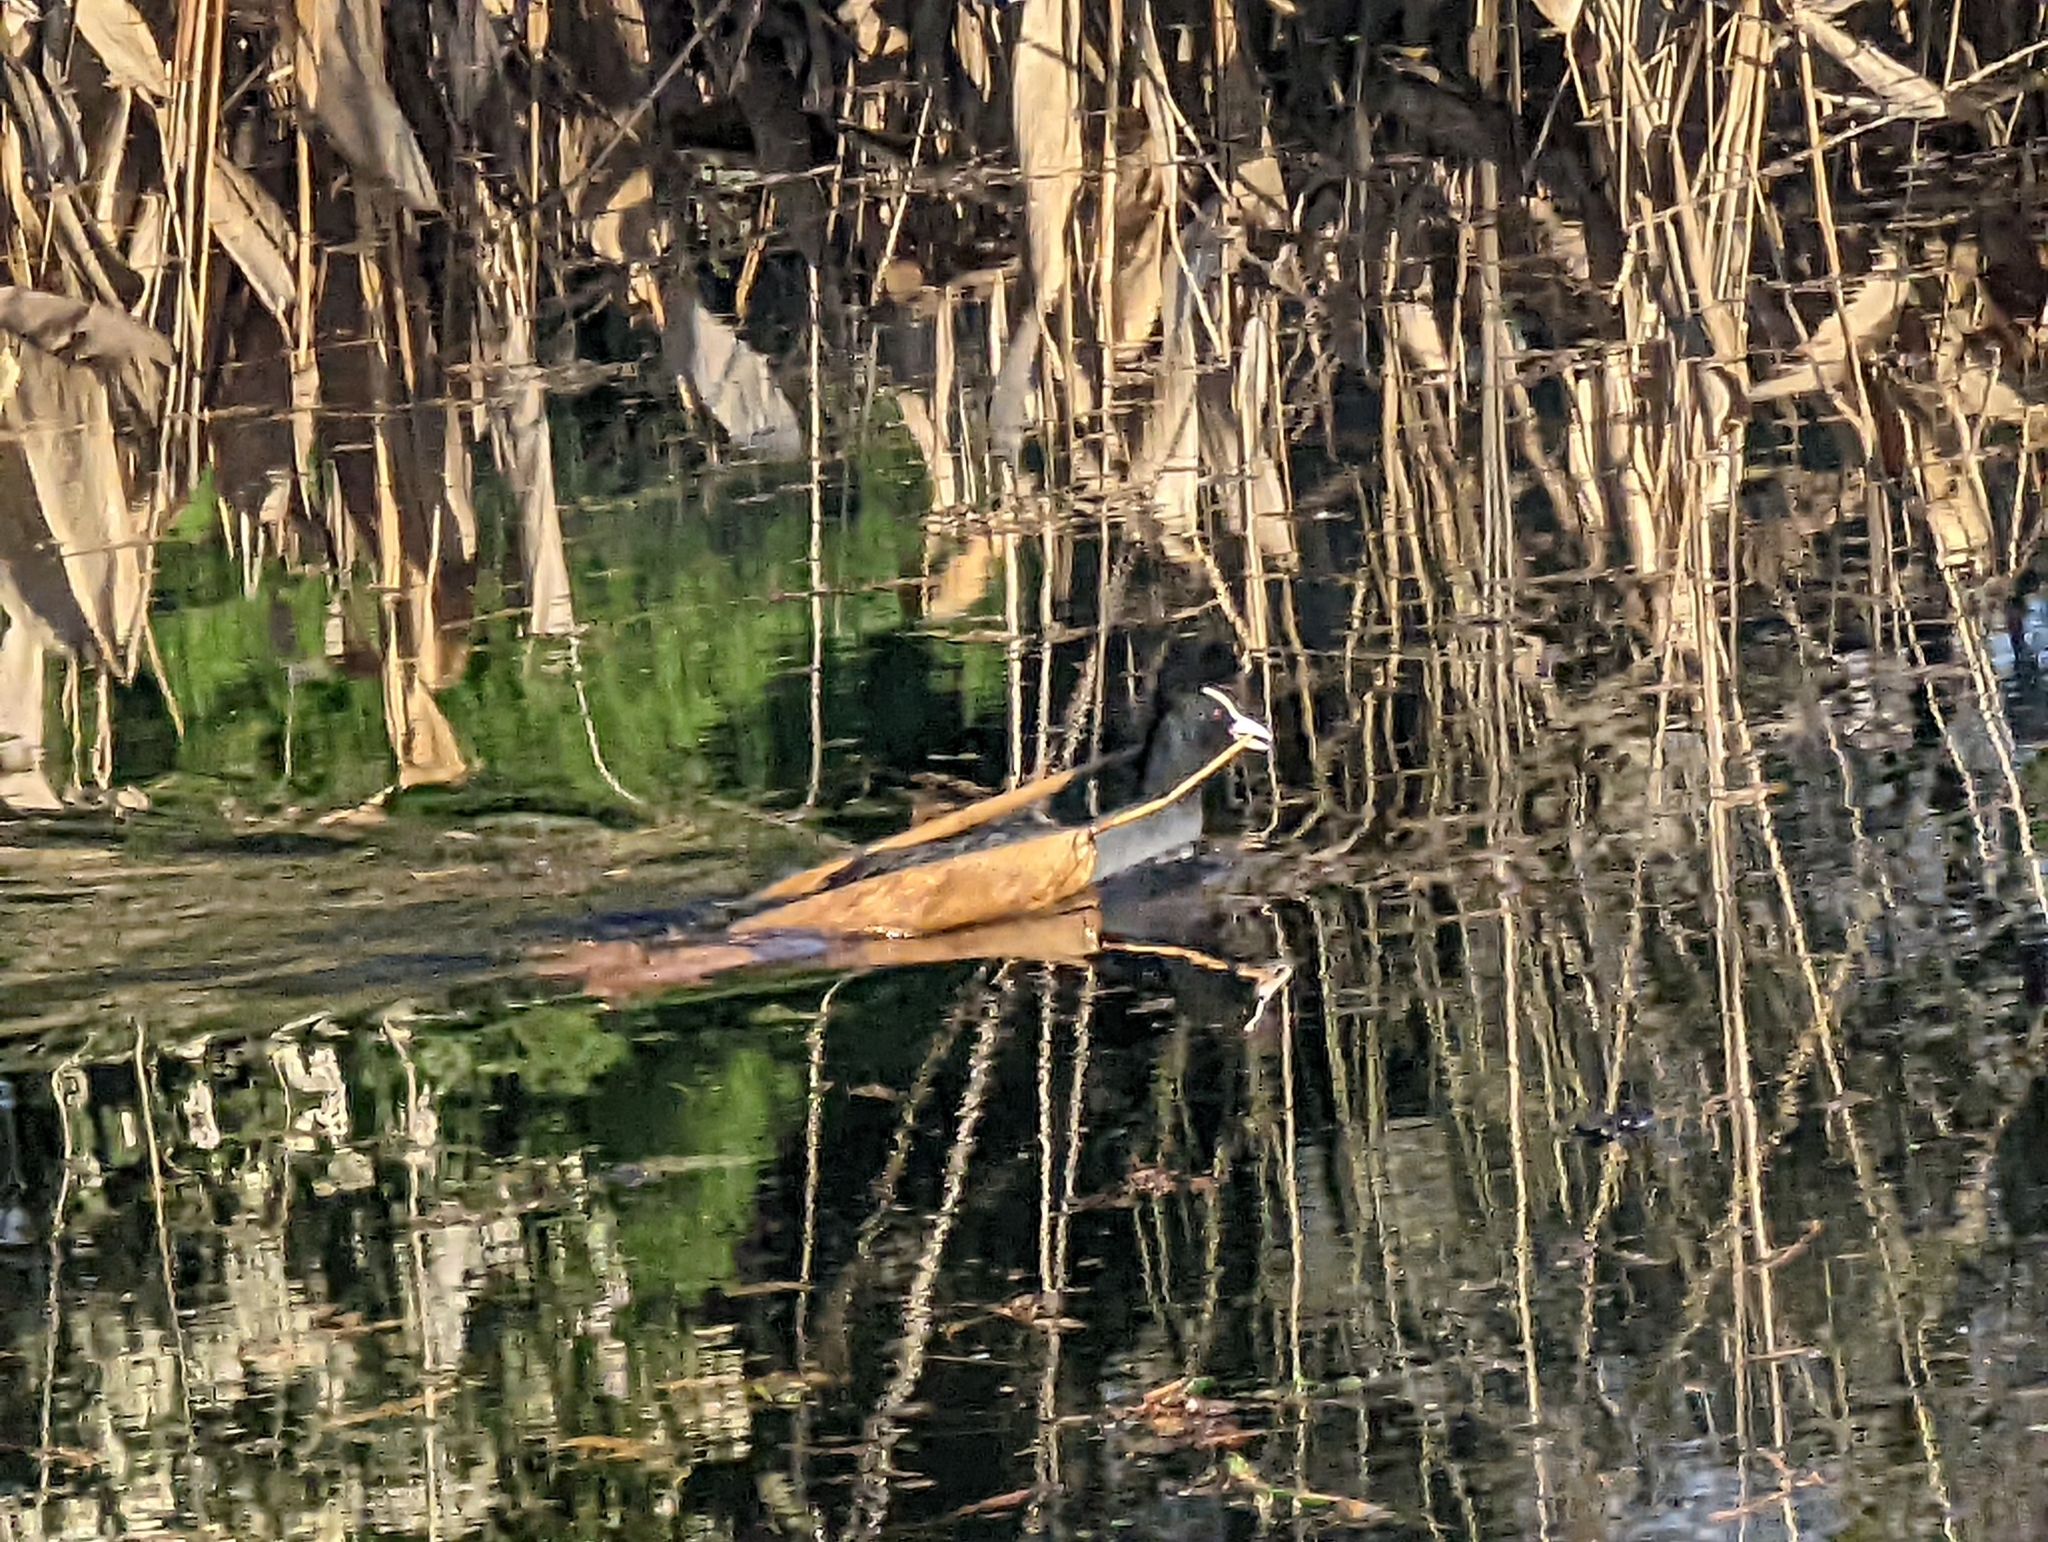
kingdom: Animalia
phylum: Chordata
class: Aves
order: Gruiformes
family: Rallidae
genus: Fulica
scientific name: Fulica atra
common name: Eurasian coot
